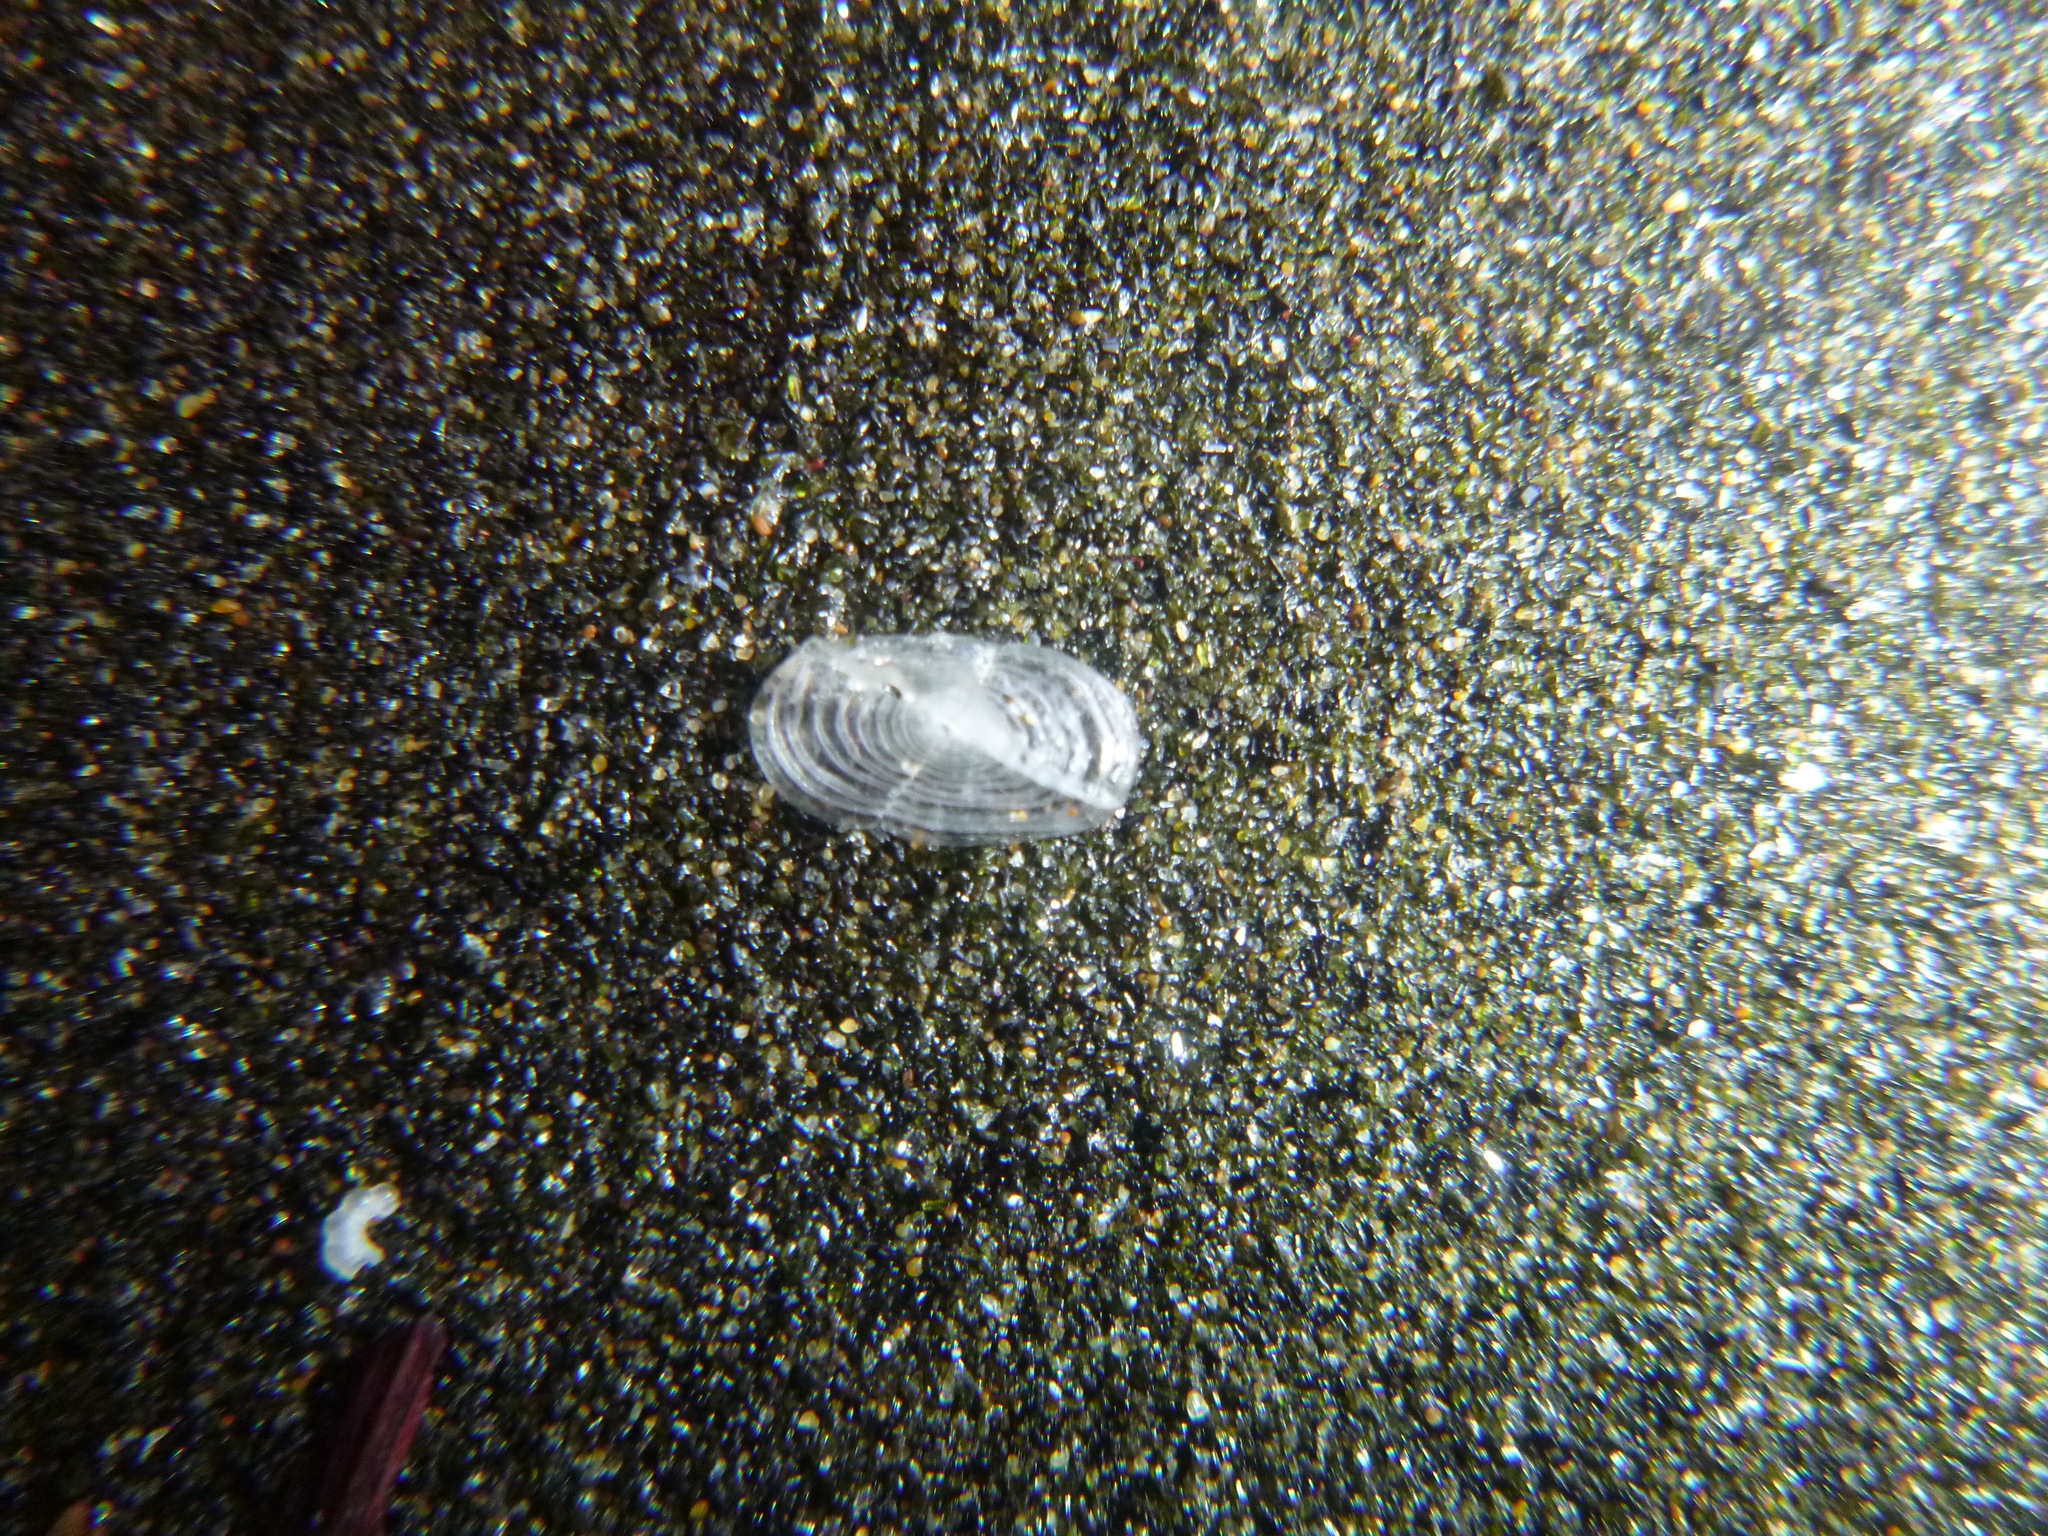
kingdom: Animalia
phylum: Cnidaria
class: Hydrozoa
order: Anthoathecata
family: Porpitidae
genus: Velella
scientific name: Velella velella
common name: By-the-wind-sailor
